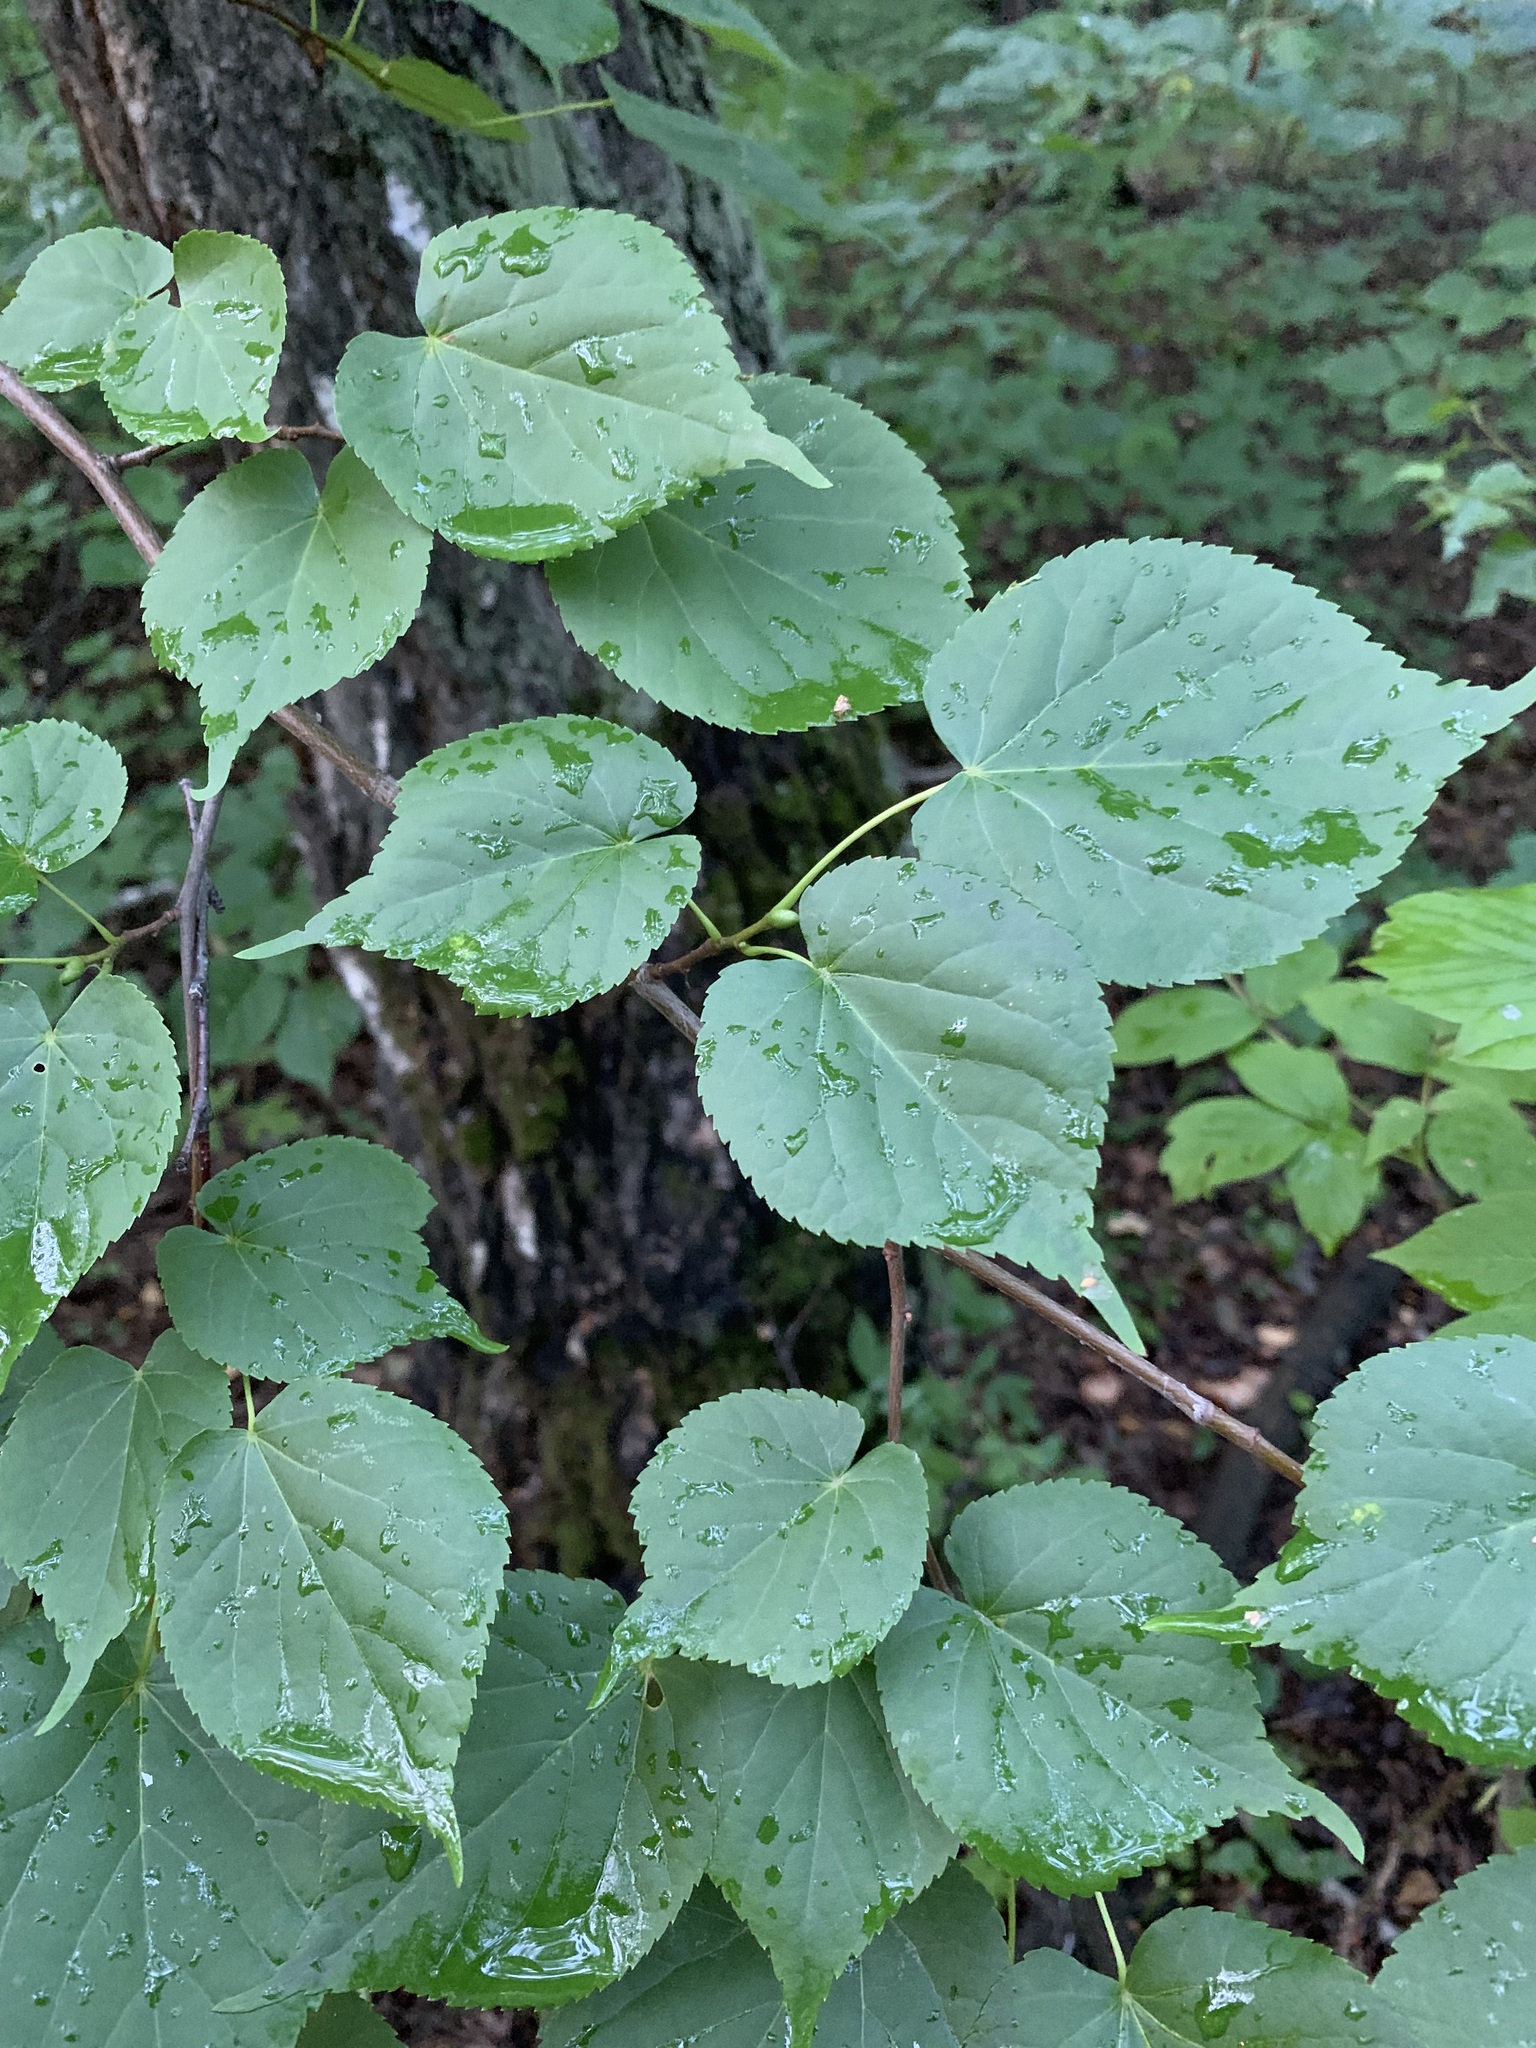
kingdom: Plantae
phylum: Tracheophyta
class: Magnoliopsida
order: Malvales
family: Malvaceae
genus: Tilia
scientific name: Tilia cordata
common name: Small-leaved lime
